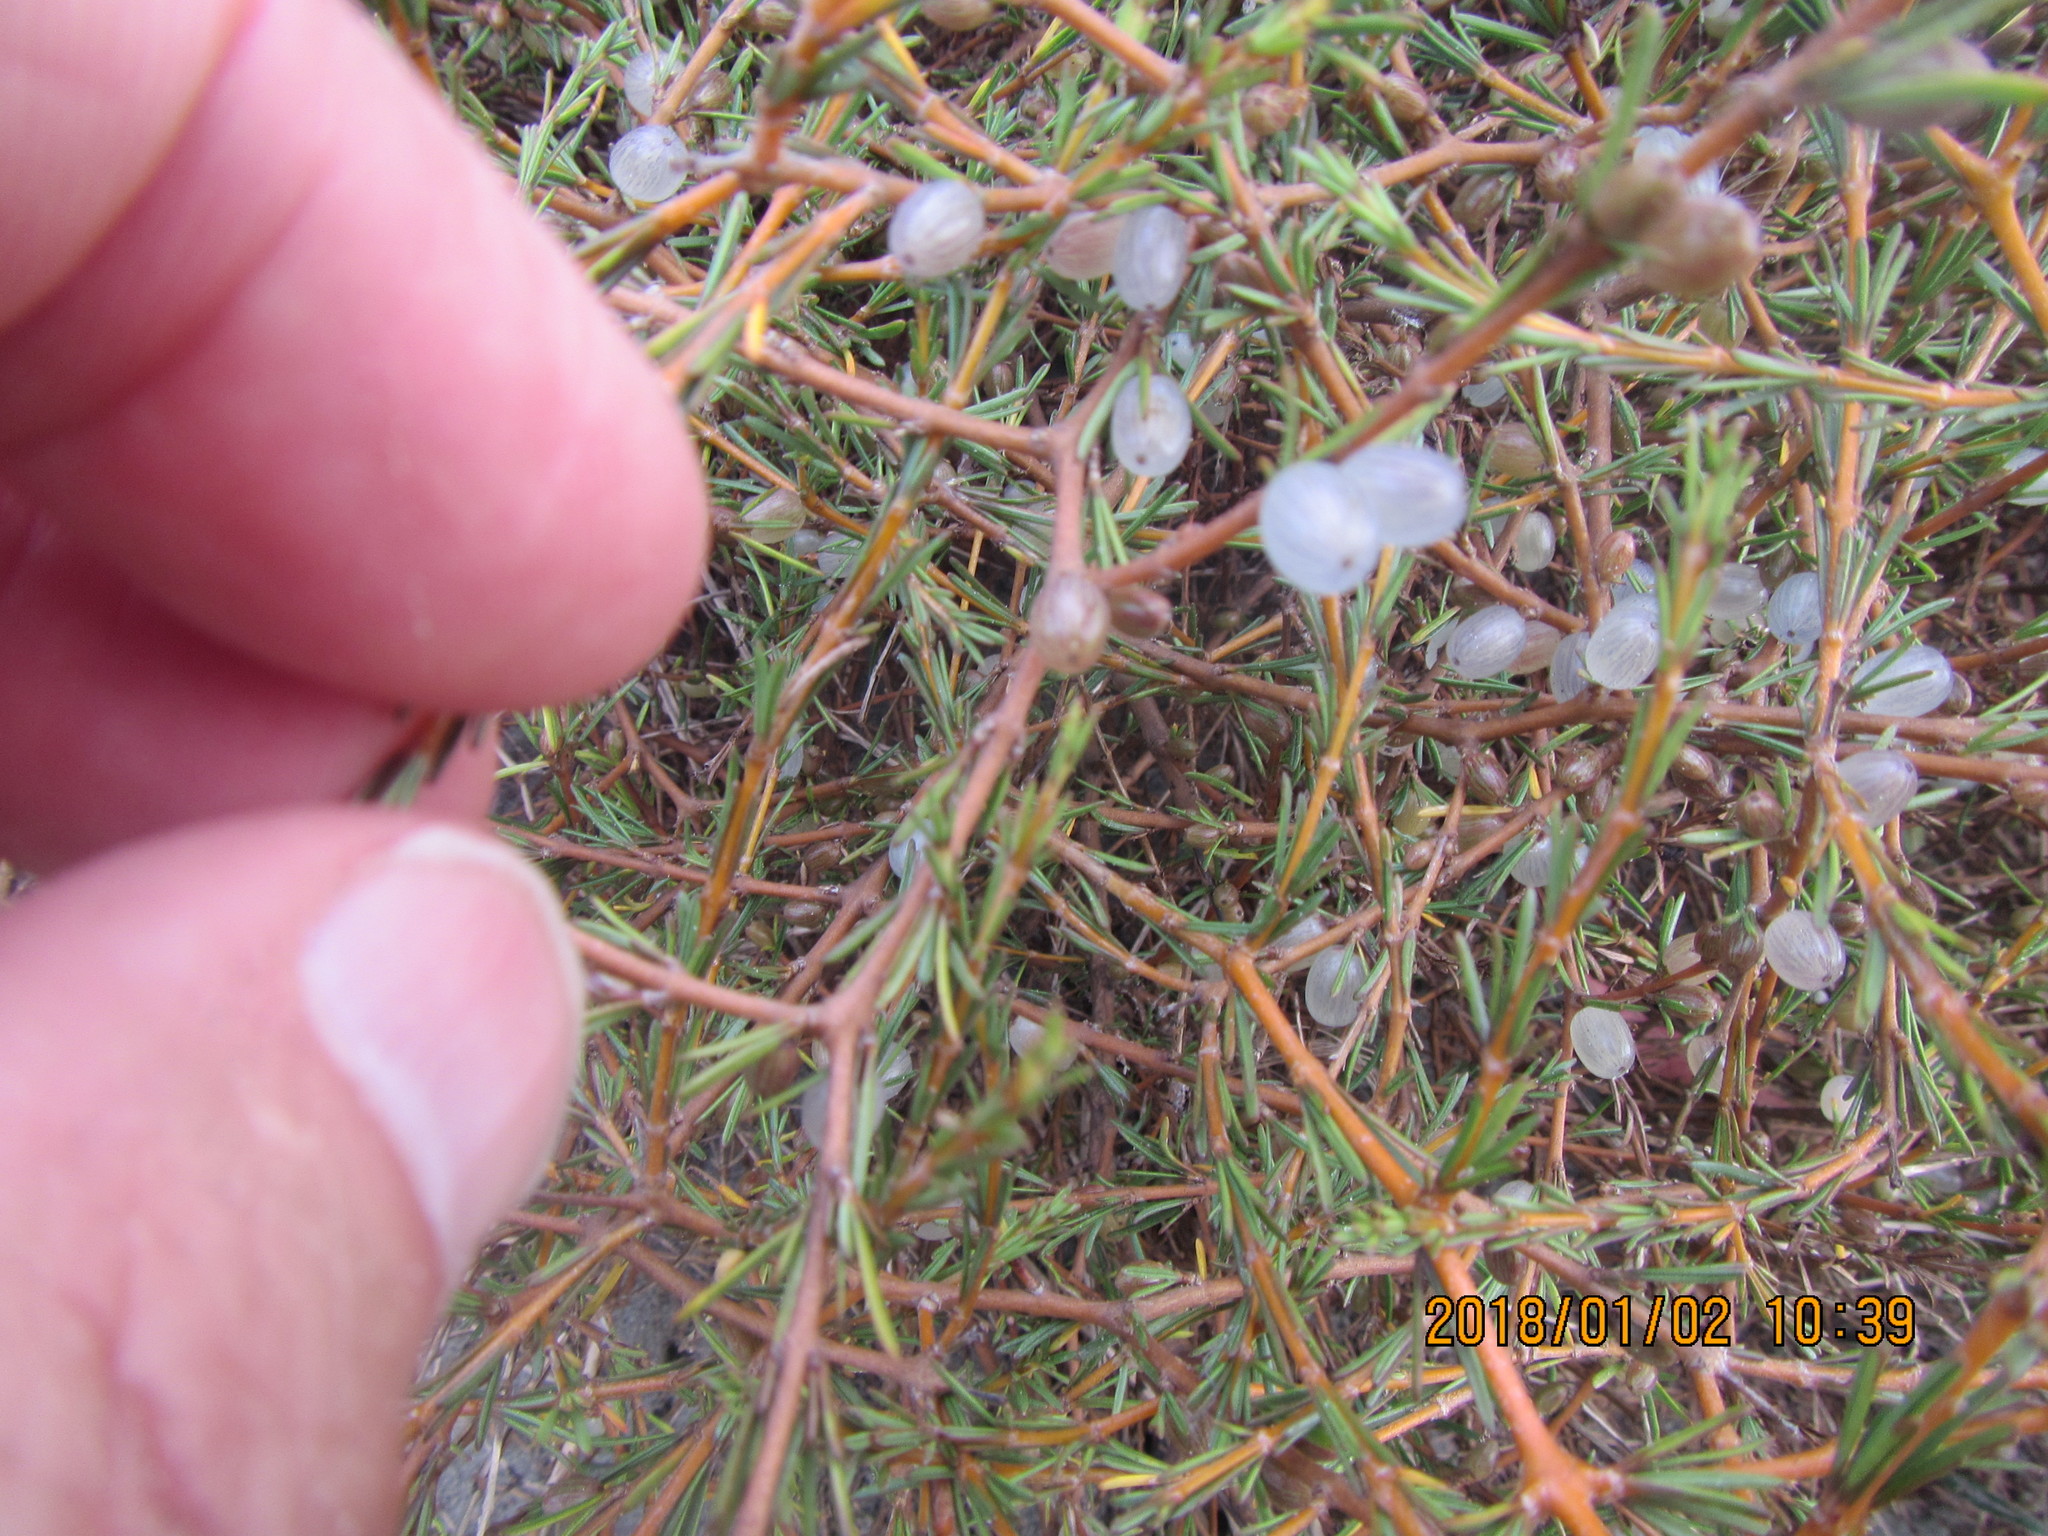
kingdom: Plantae
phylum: Tracheophyta
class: Magnoliopsida
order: Gentianales
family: Rubiaceae
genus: Coprosma
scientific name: Coprosma acerosa
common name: Sand coprosma
